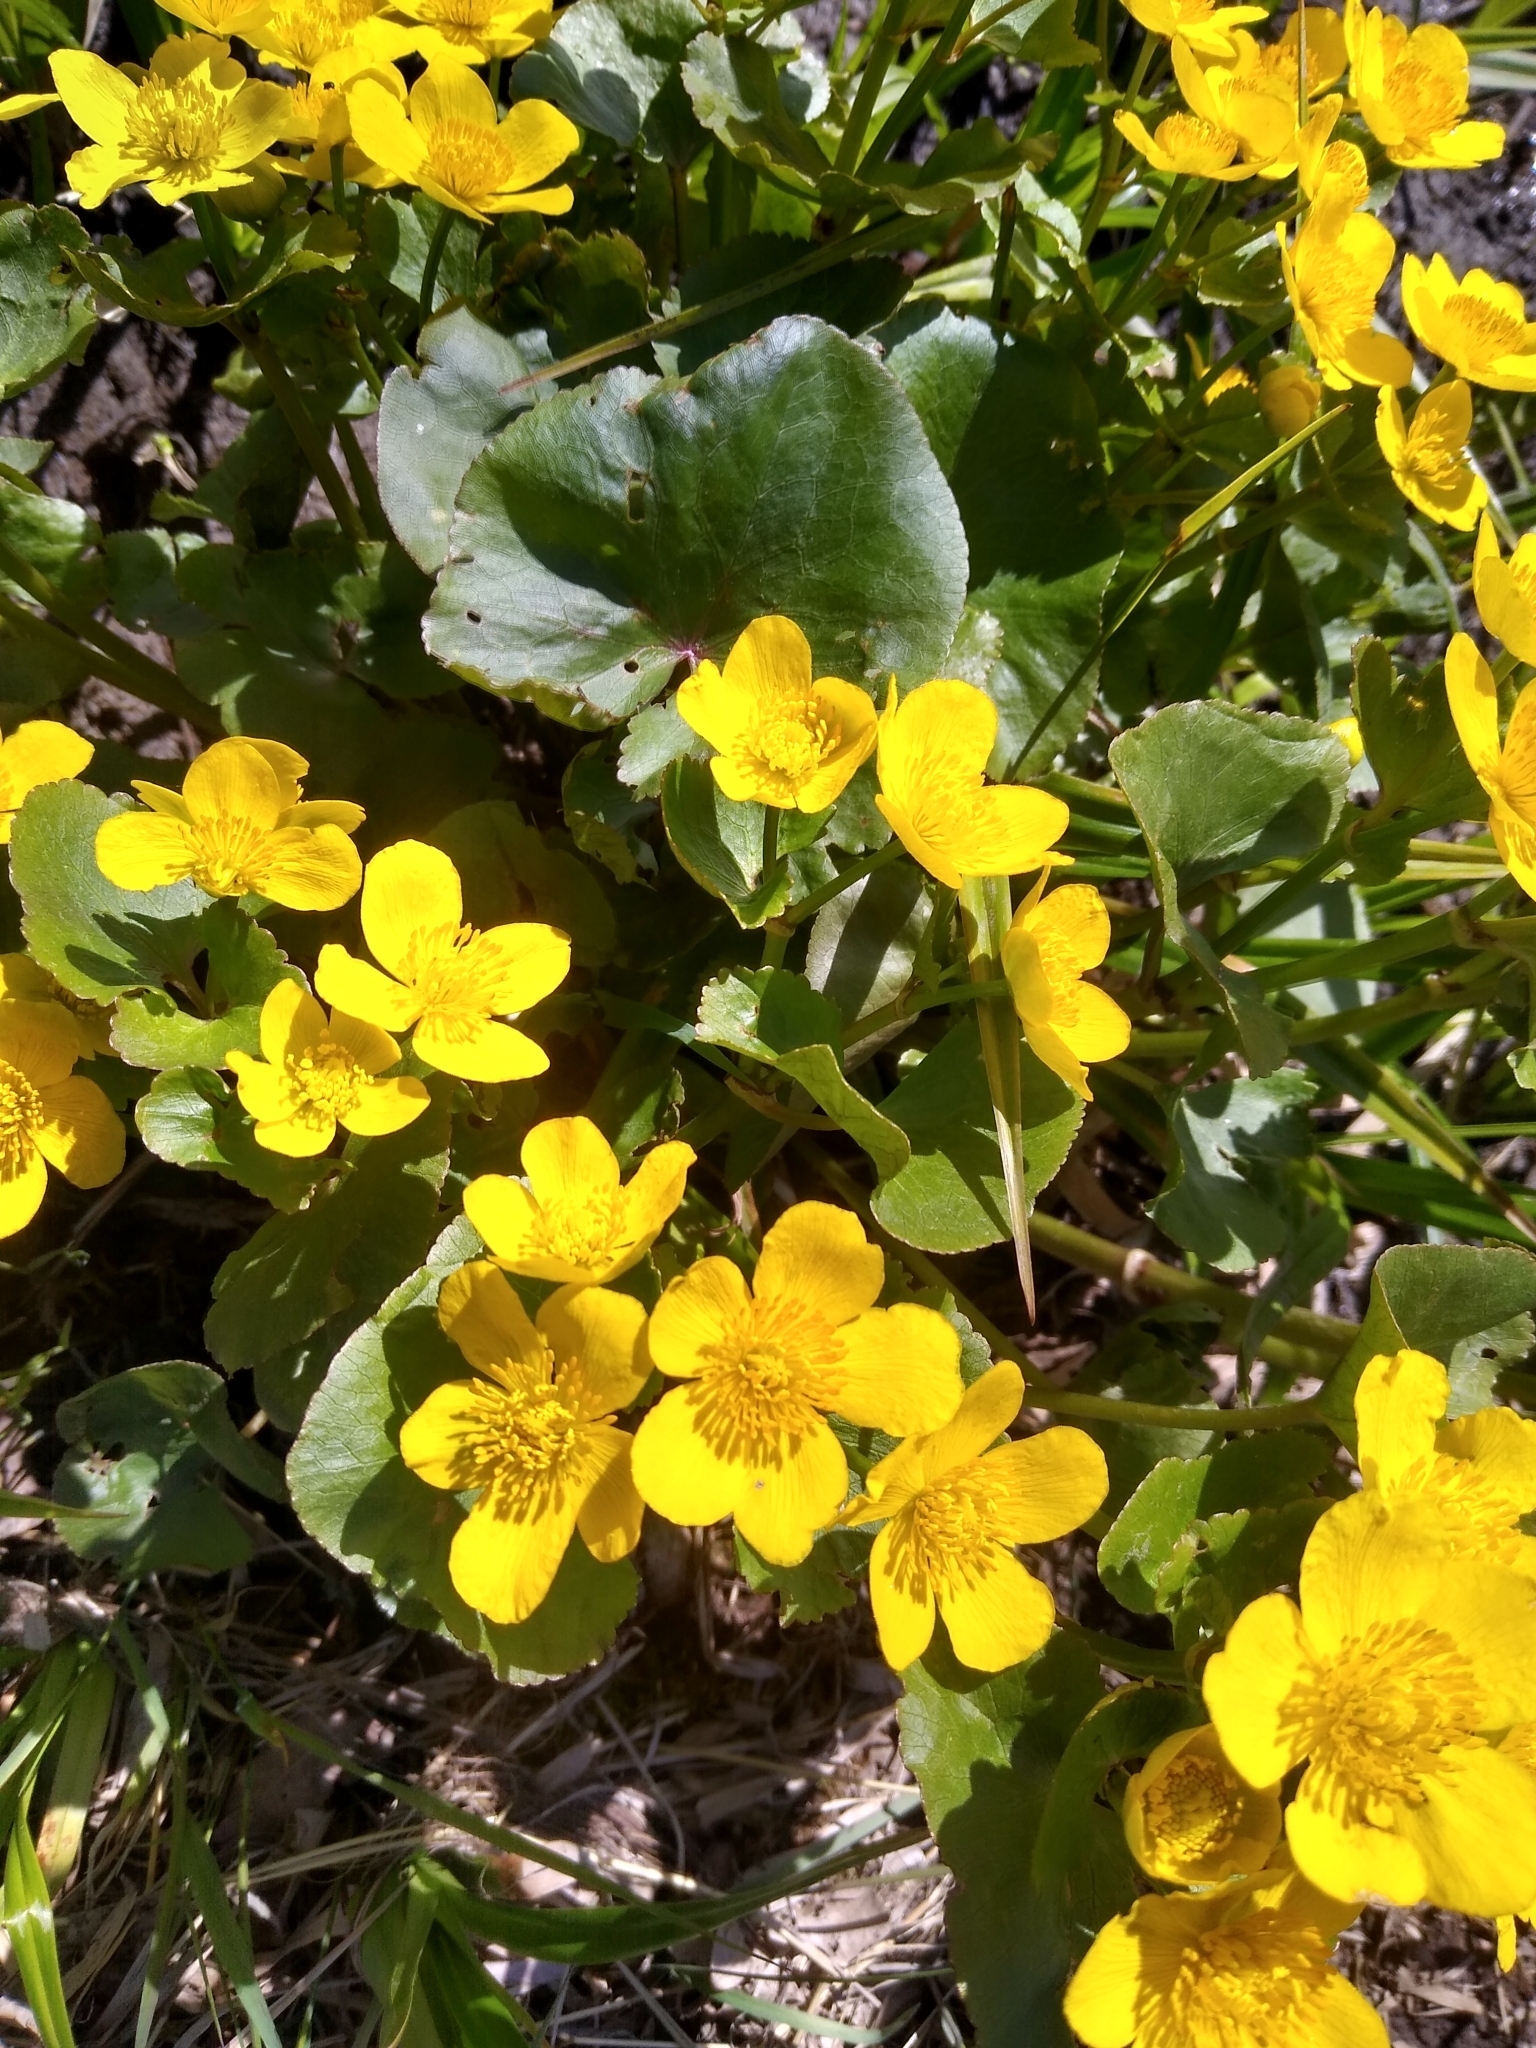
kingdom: Plantae
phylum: Tracheophyta
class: Magnoliopsida
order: Ranunculales
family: Ranunculaceae
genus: Caltha
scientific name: Caltha palustris
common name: Marsh marigold
